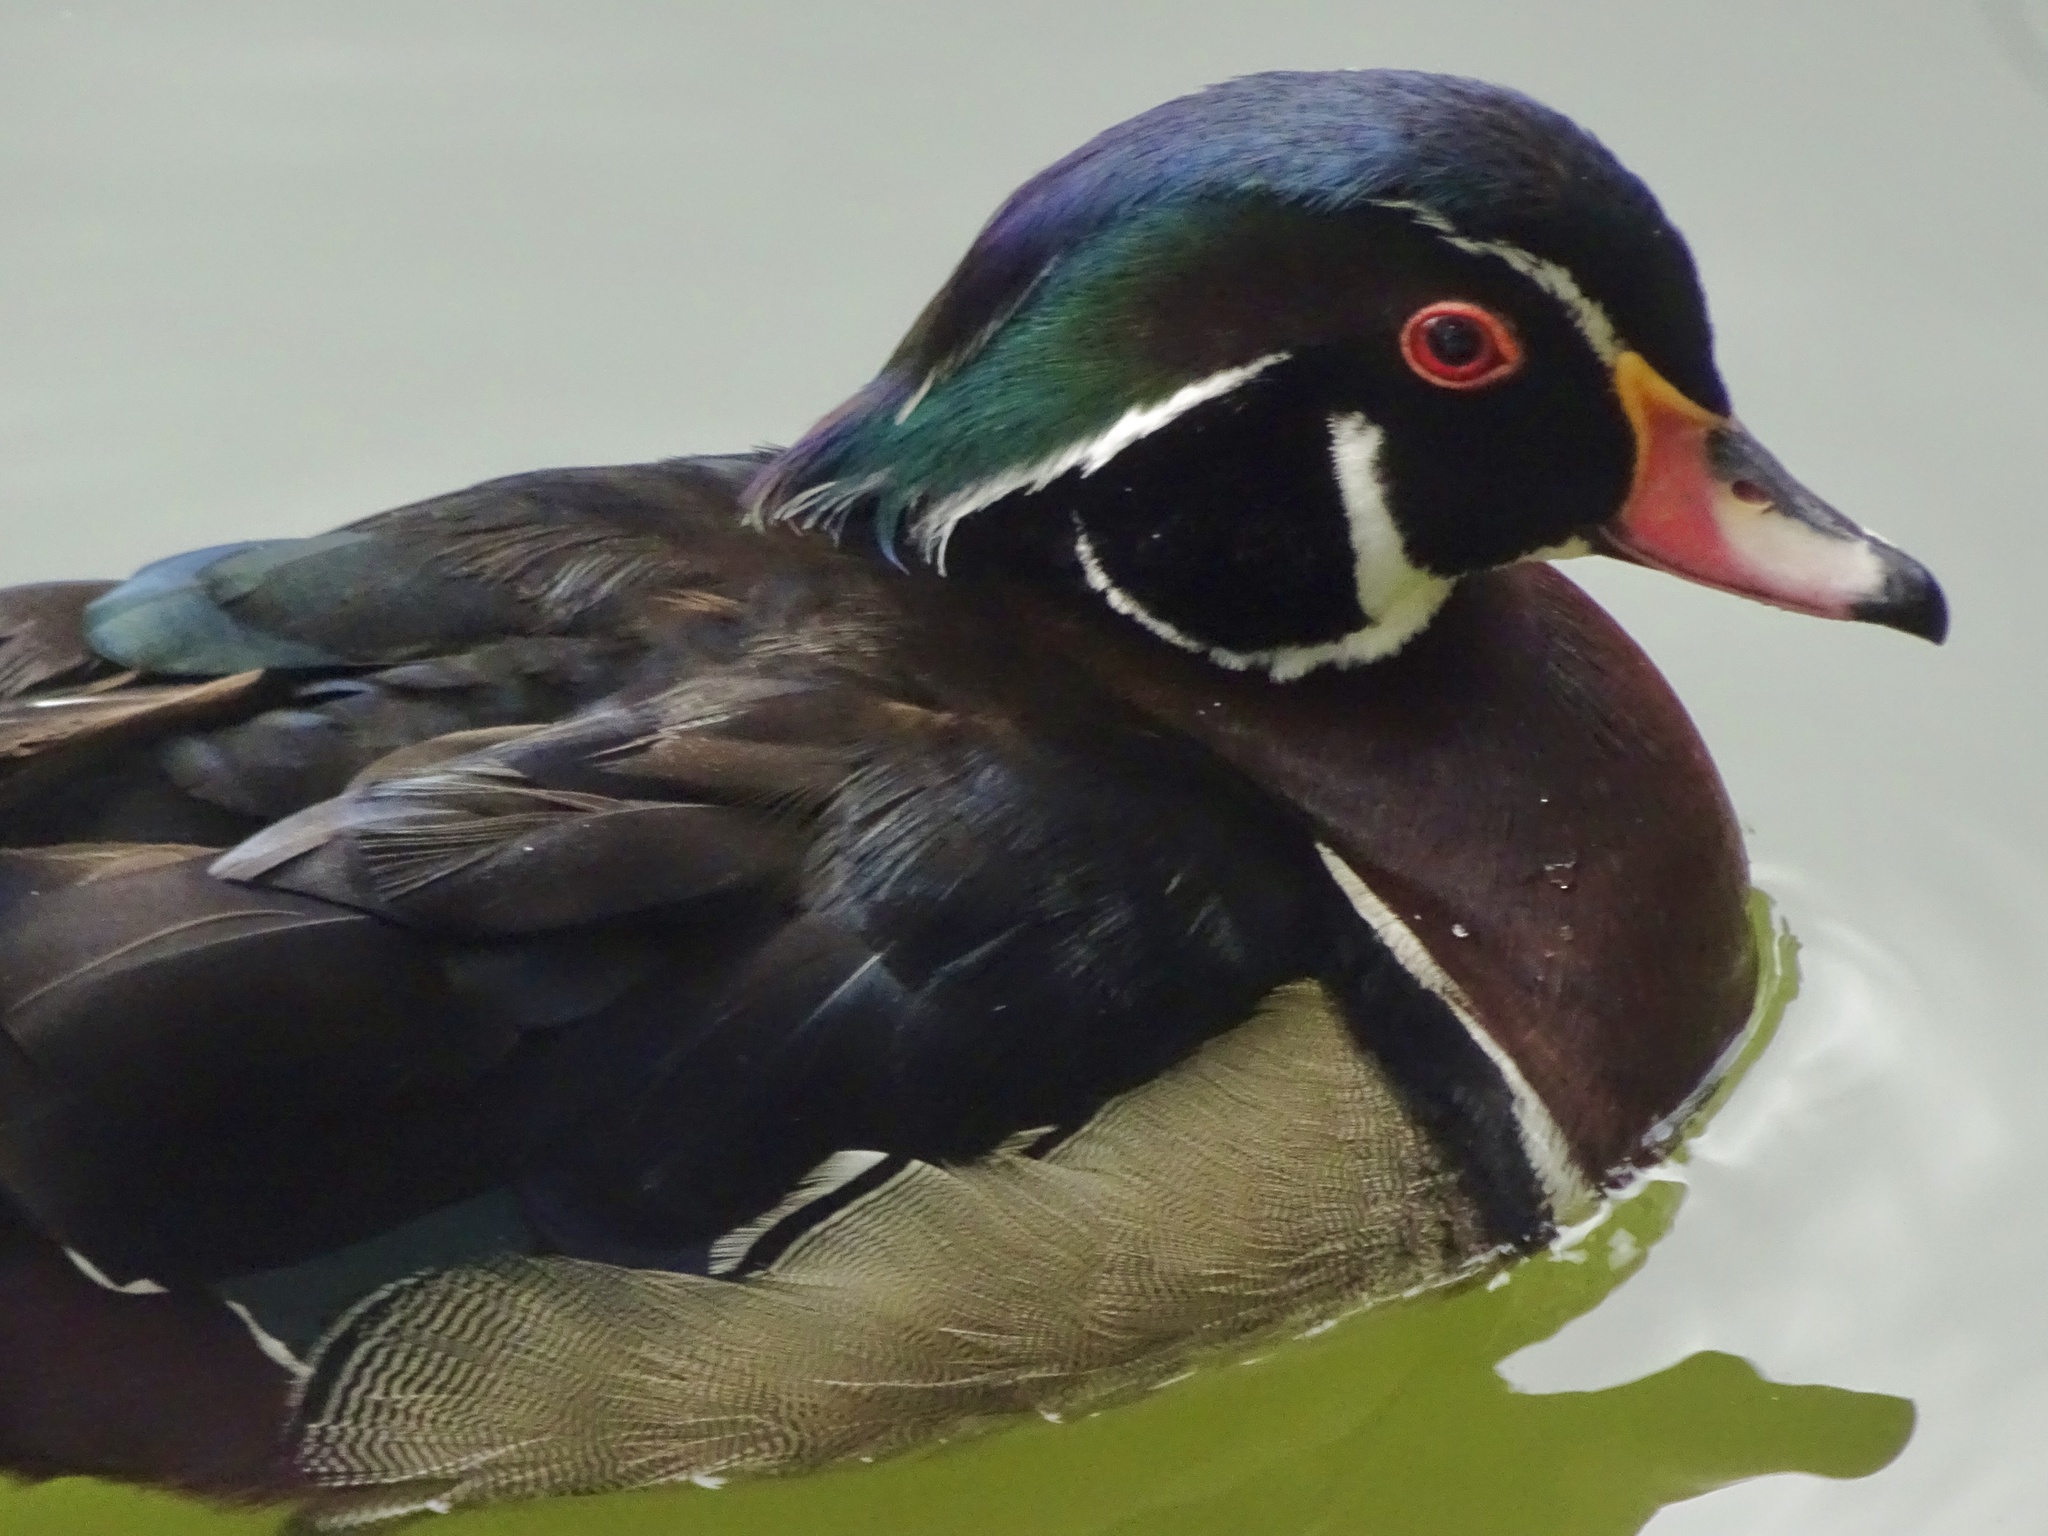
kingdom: Animalia
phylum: Chordata
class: Aves
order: Anseriformes
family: Anatidae
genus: Aix
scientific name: Aix sponsa
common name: Wood duck
